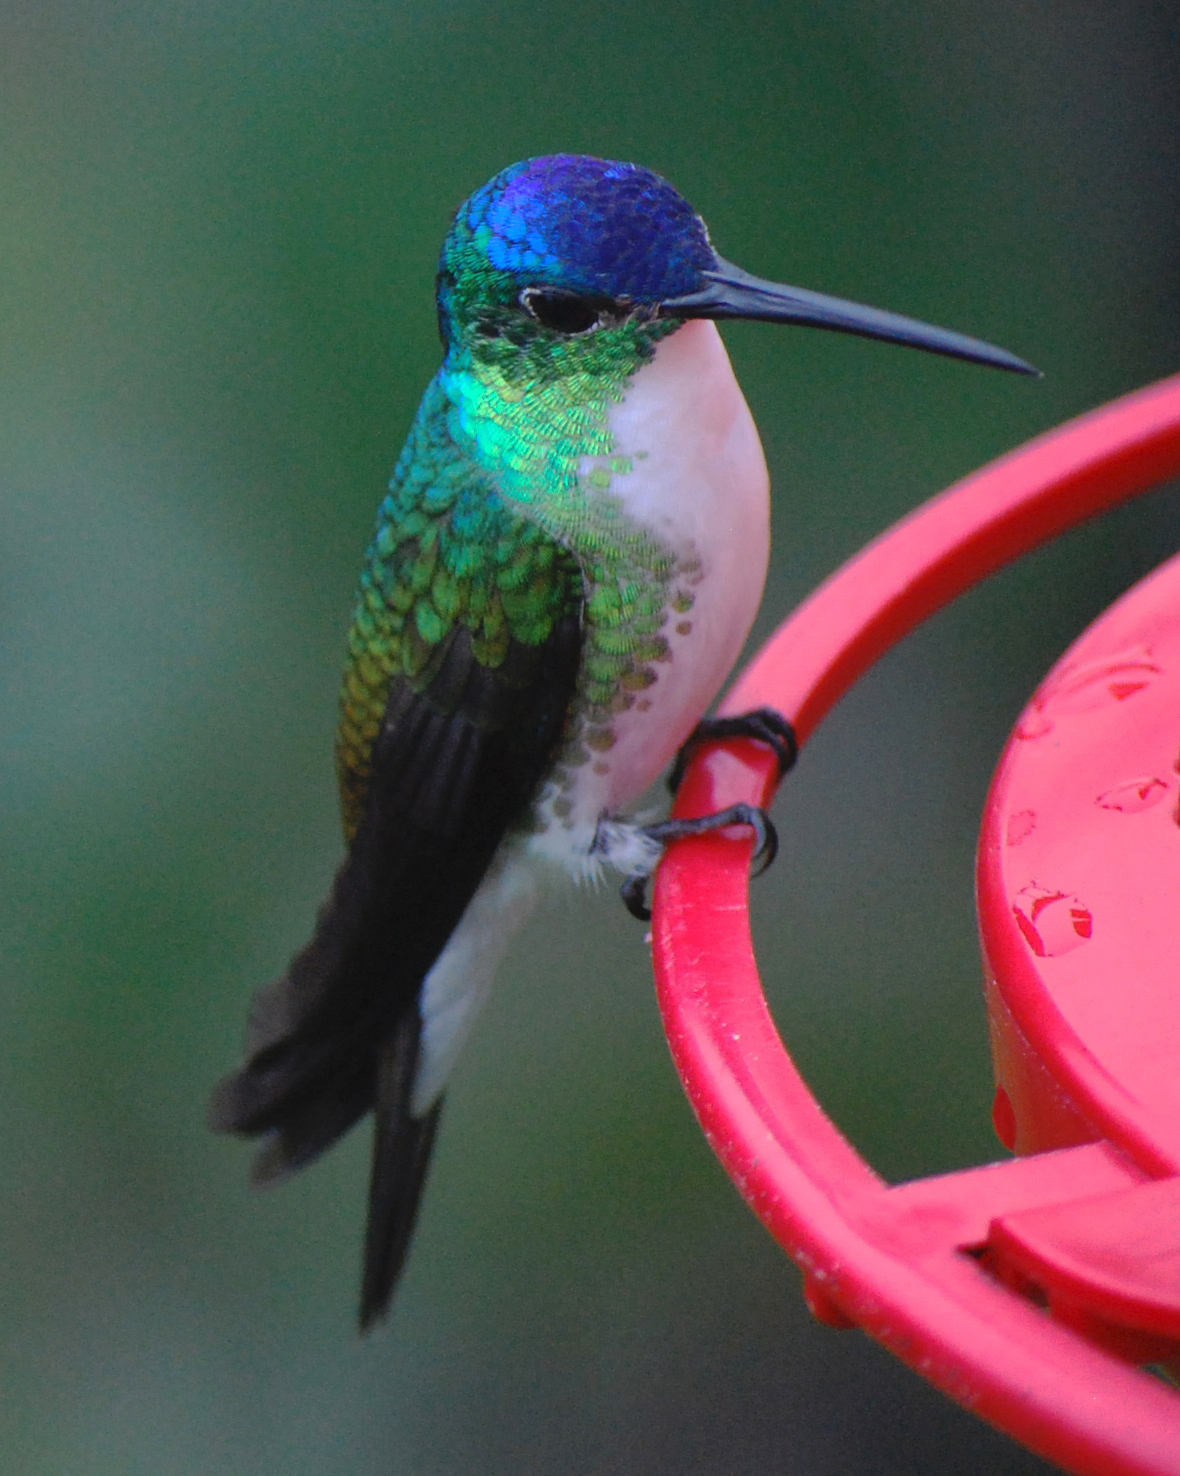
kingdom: Animalia
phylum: Chordata
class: Aves
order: Apodiformes
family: Trochilidae
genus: Uranomitra
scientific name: Uranomitra franciae
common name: Andean emerald
